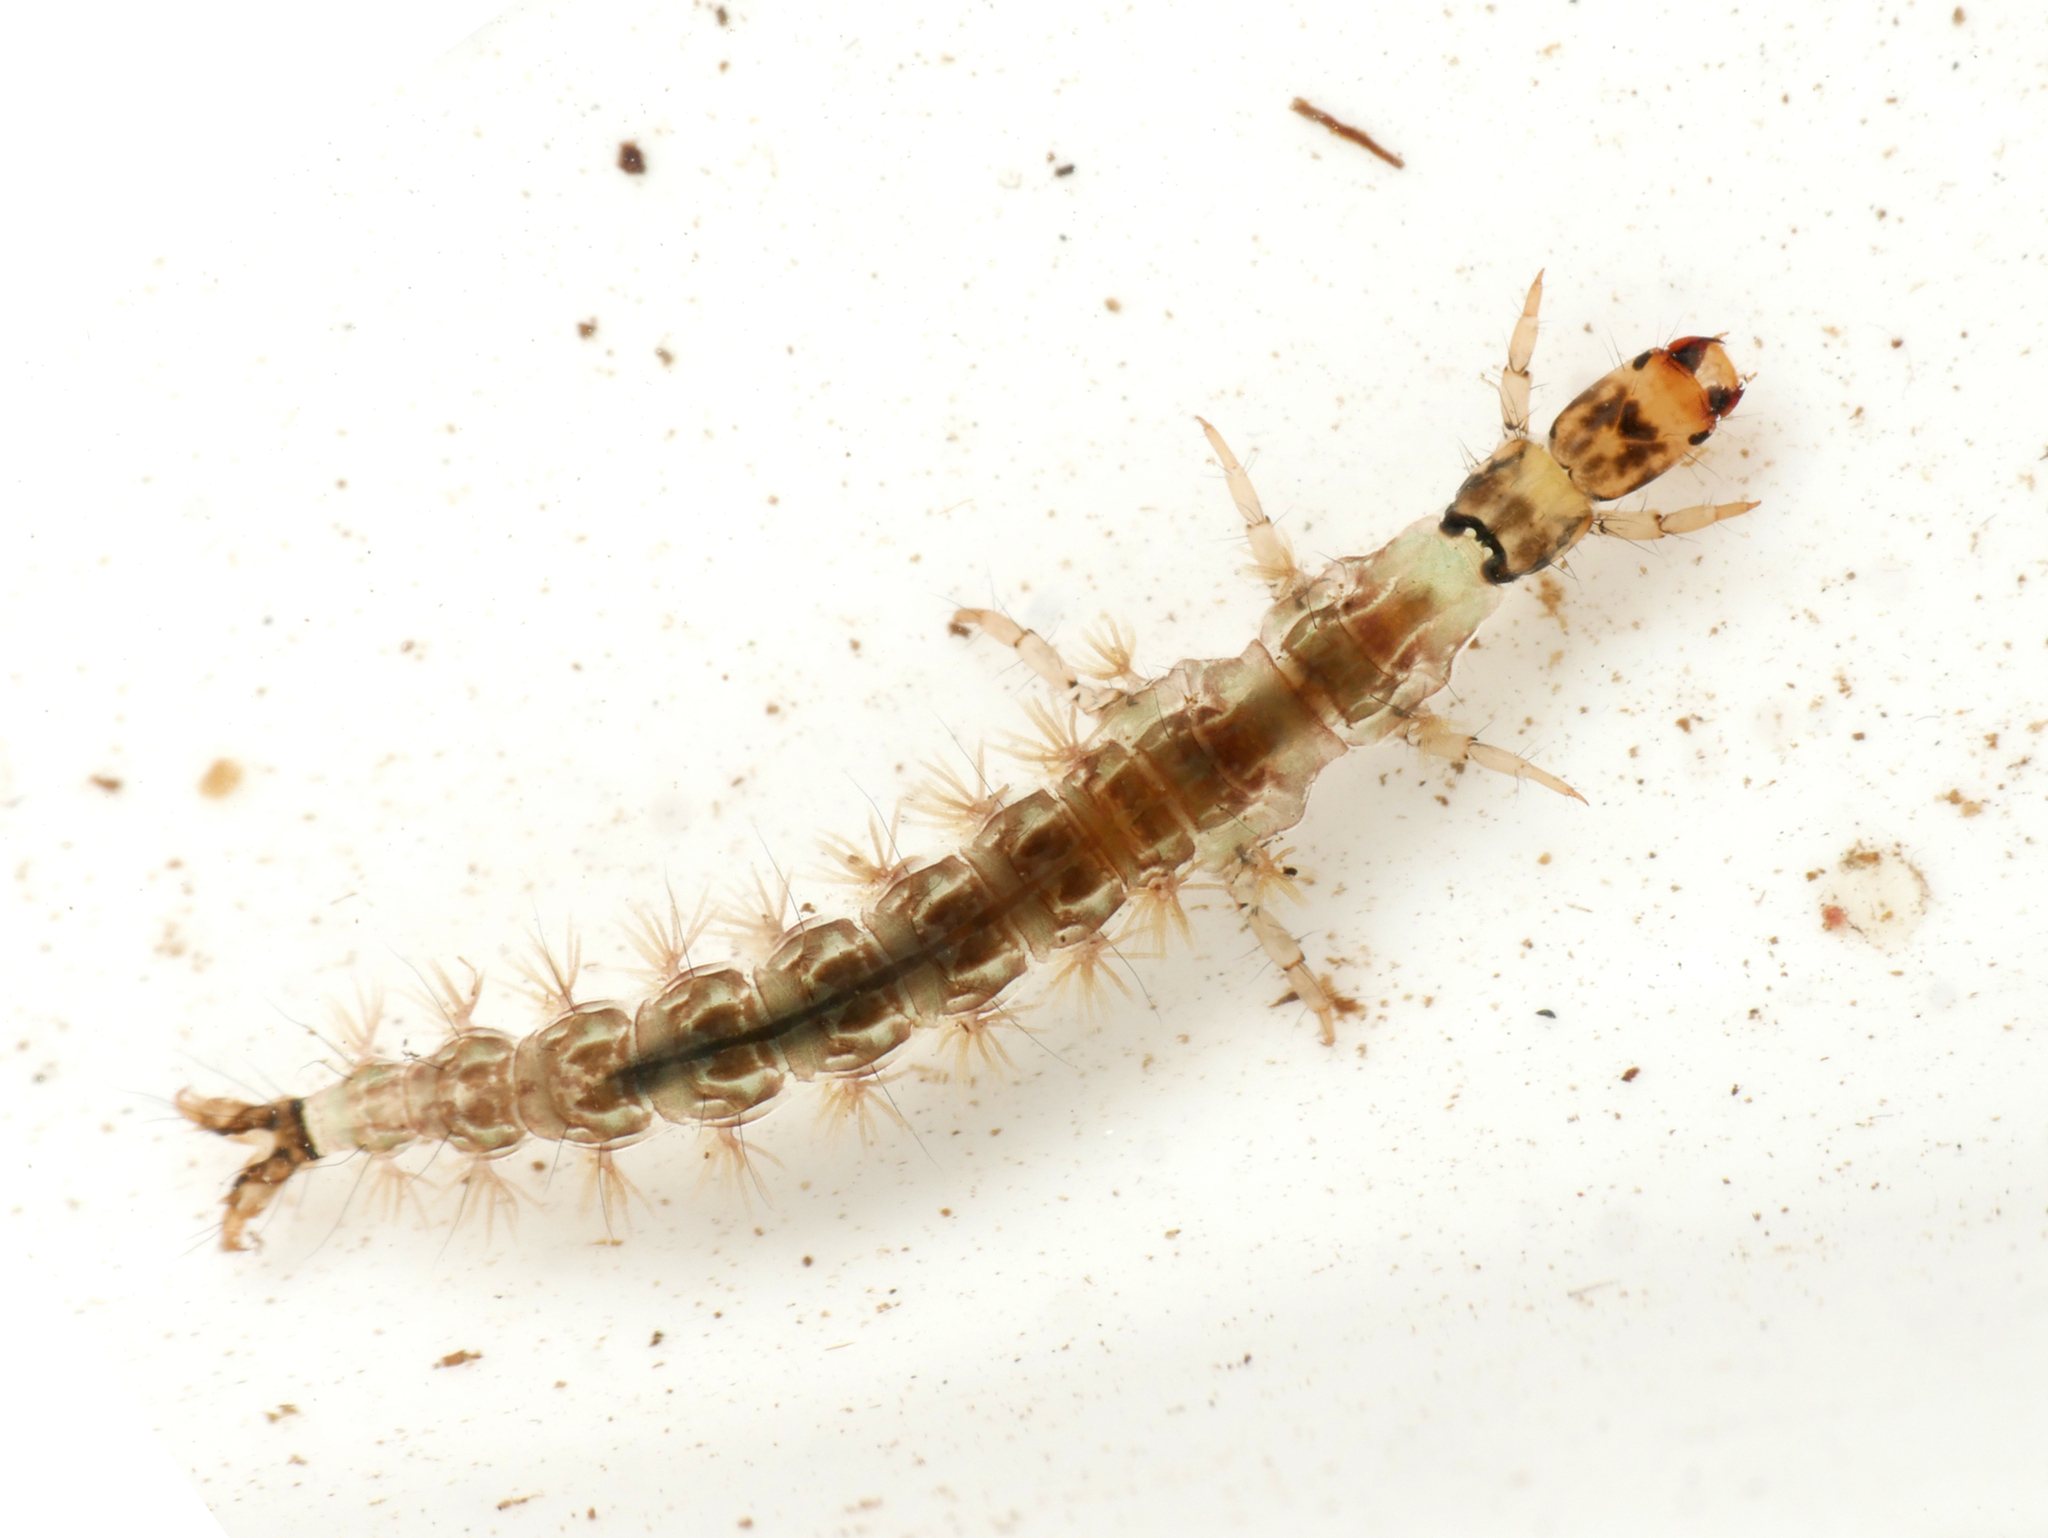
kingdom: Animalia
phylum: Arthropoda
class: Insecta
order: Trichoptera
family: Rhyacophilidae
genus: Rhyacophila
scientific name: Rhyacophila nubila
